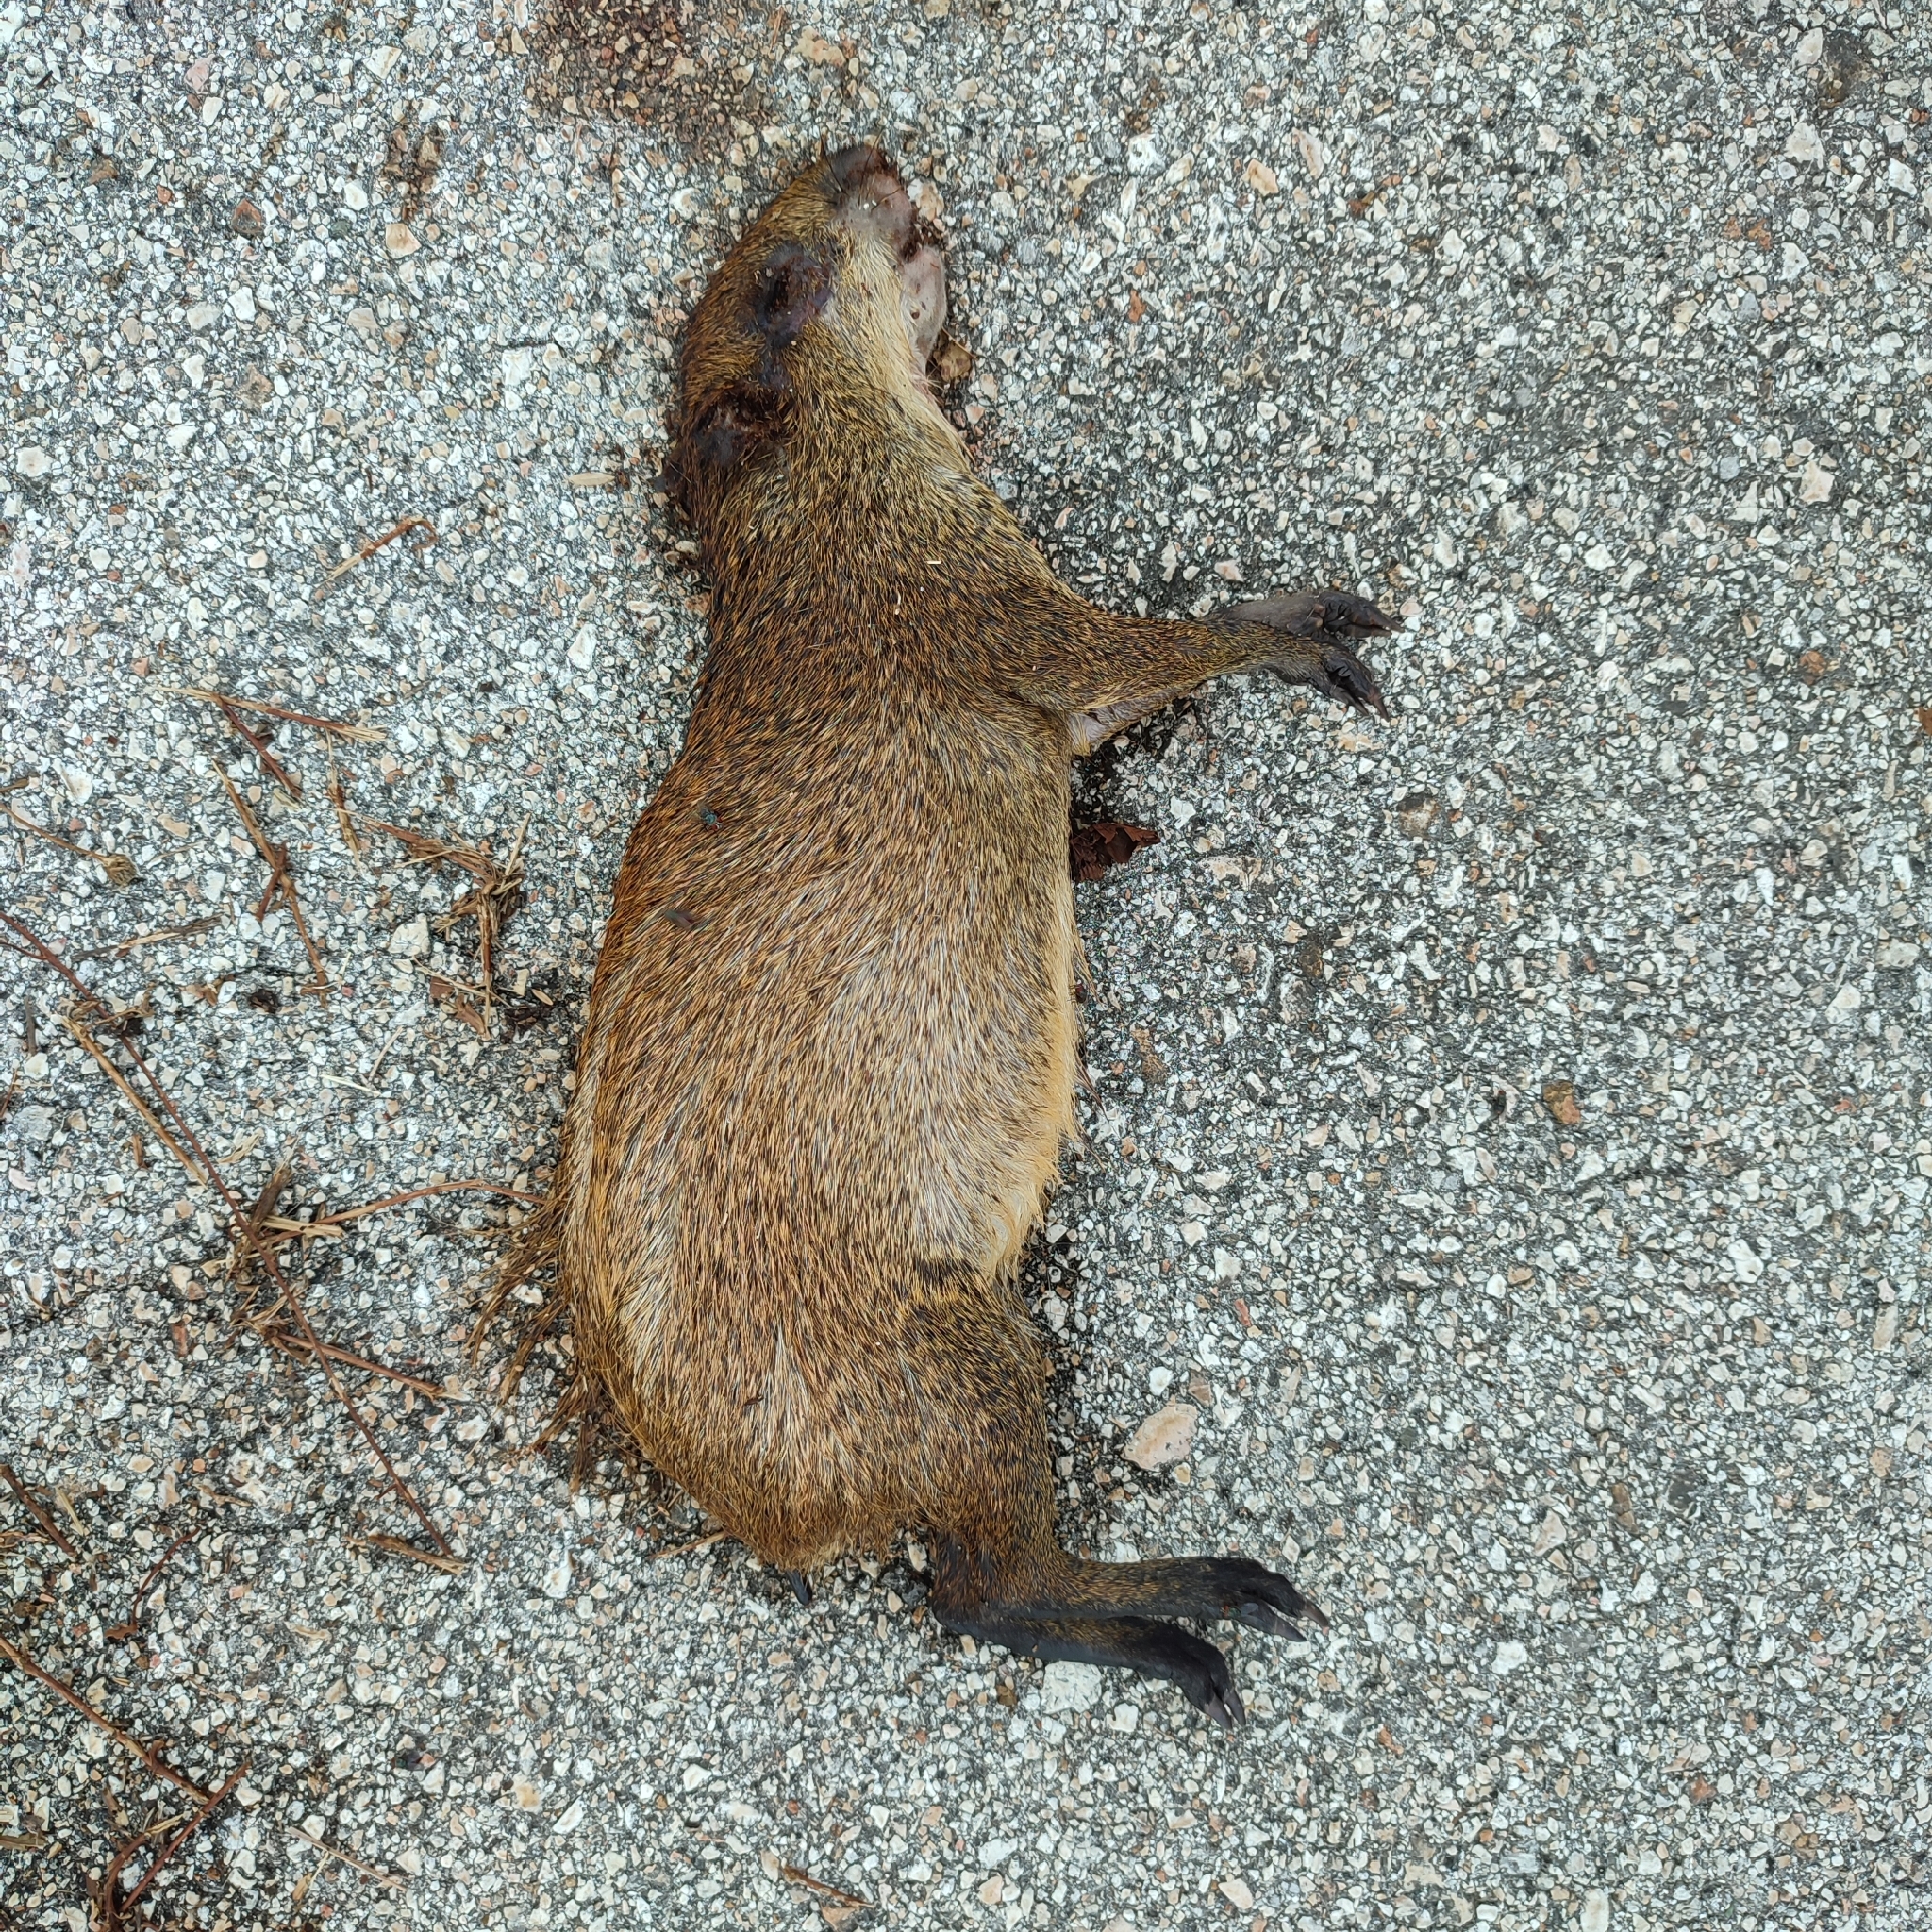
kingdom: Animalia
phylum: Chordata
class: Mammalia
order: Rodentia
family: Dasyproctidae
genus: Dasyprocta
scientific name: Dasyprocta punctata
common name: Central american agouti
